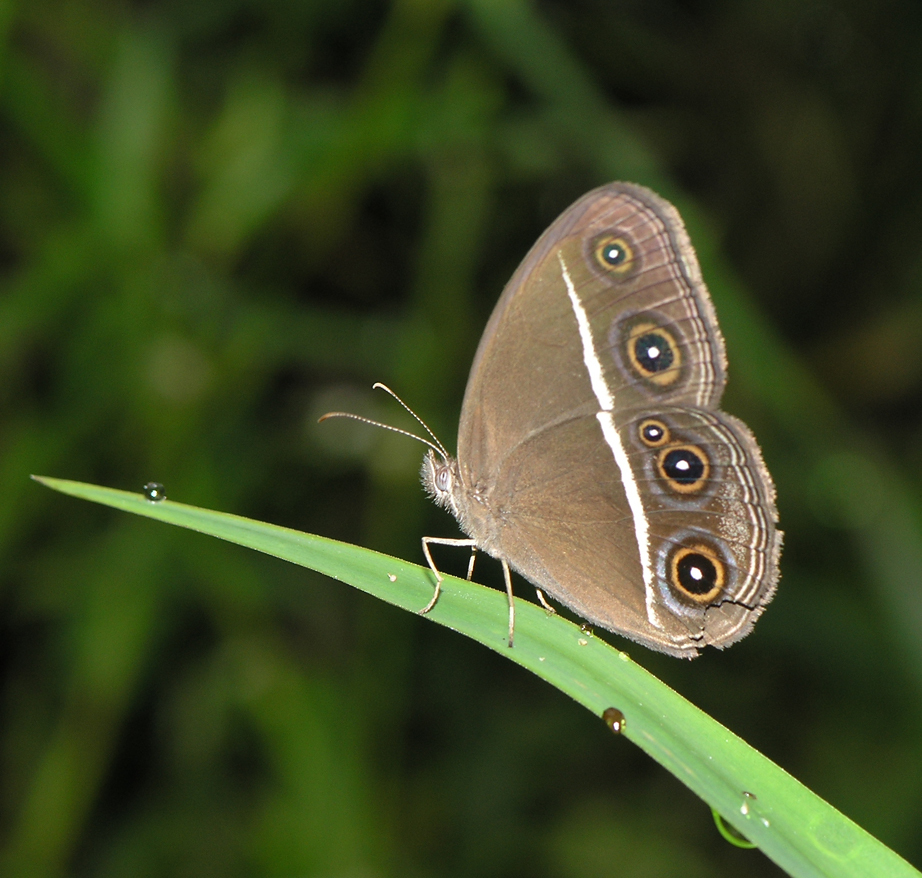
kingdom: Animalia
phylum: Arthropoda
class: Insecta
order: Lepidoptera
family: Nymphalidae
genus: Orsotriaena
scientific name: Orsotriaena medus
